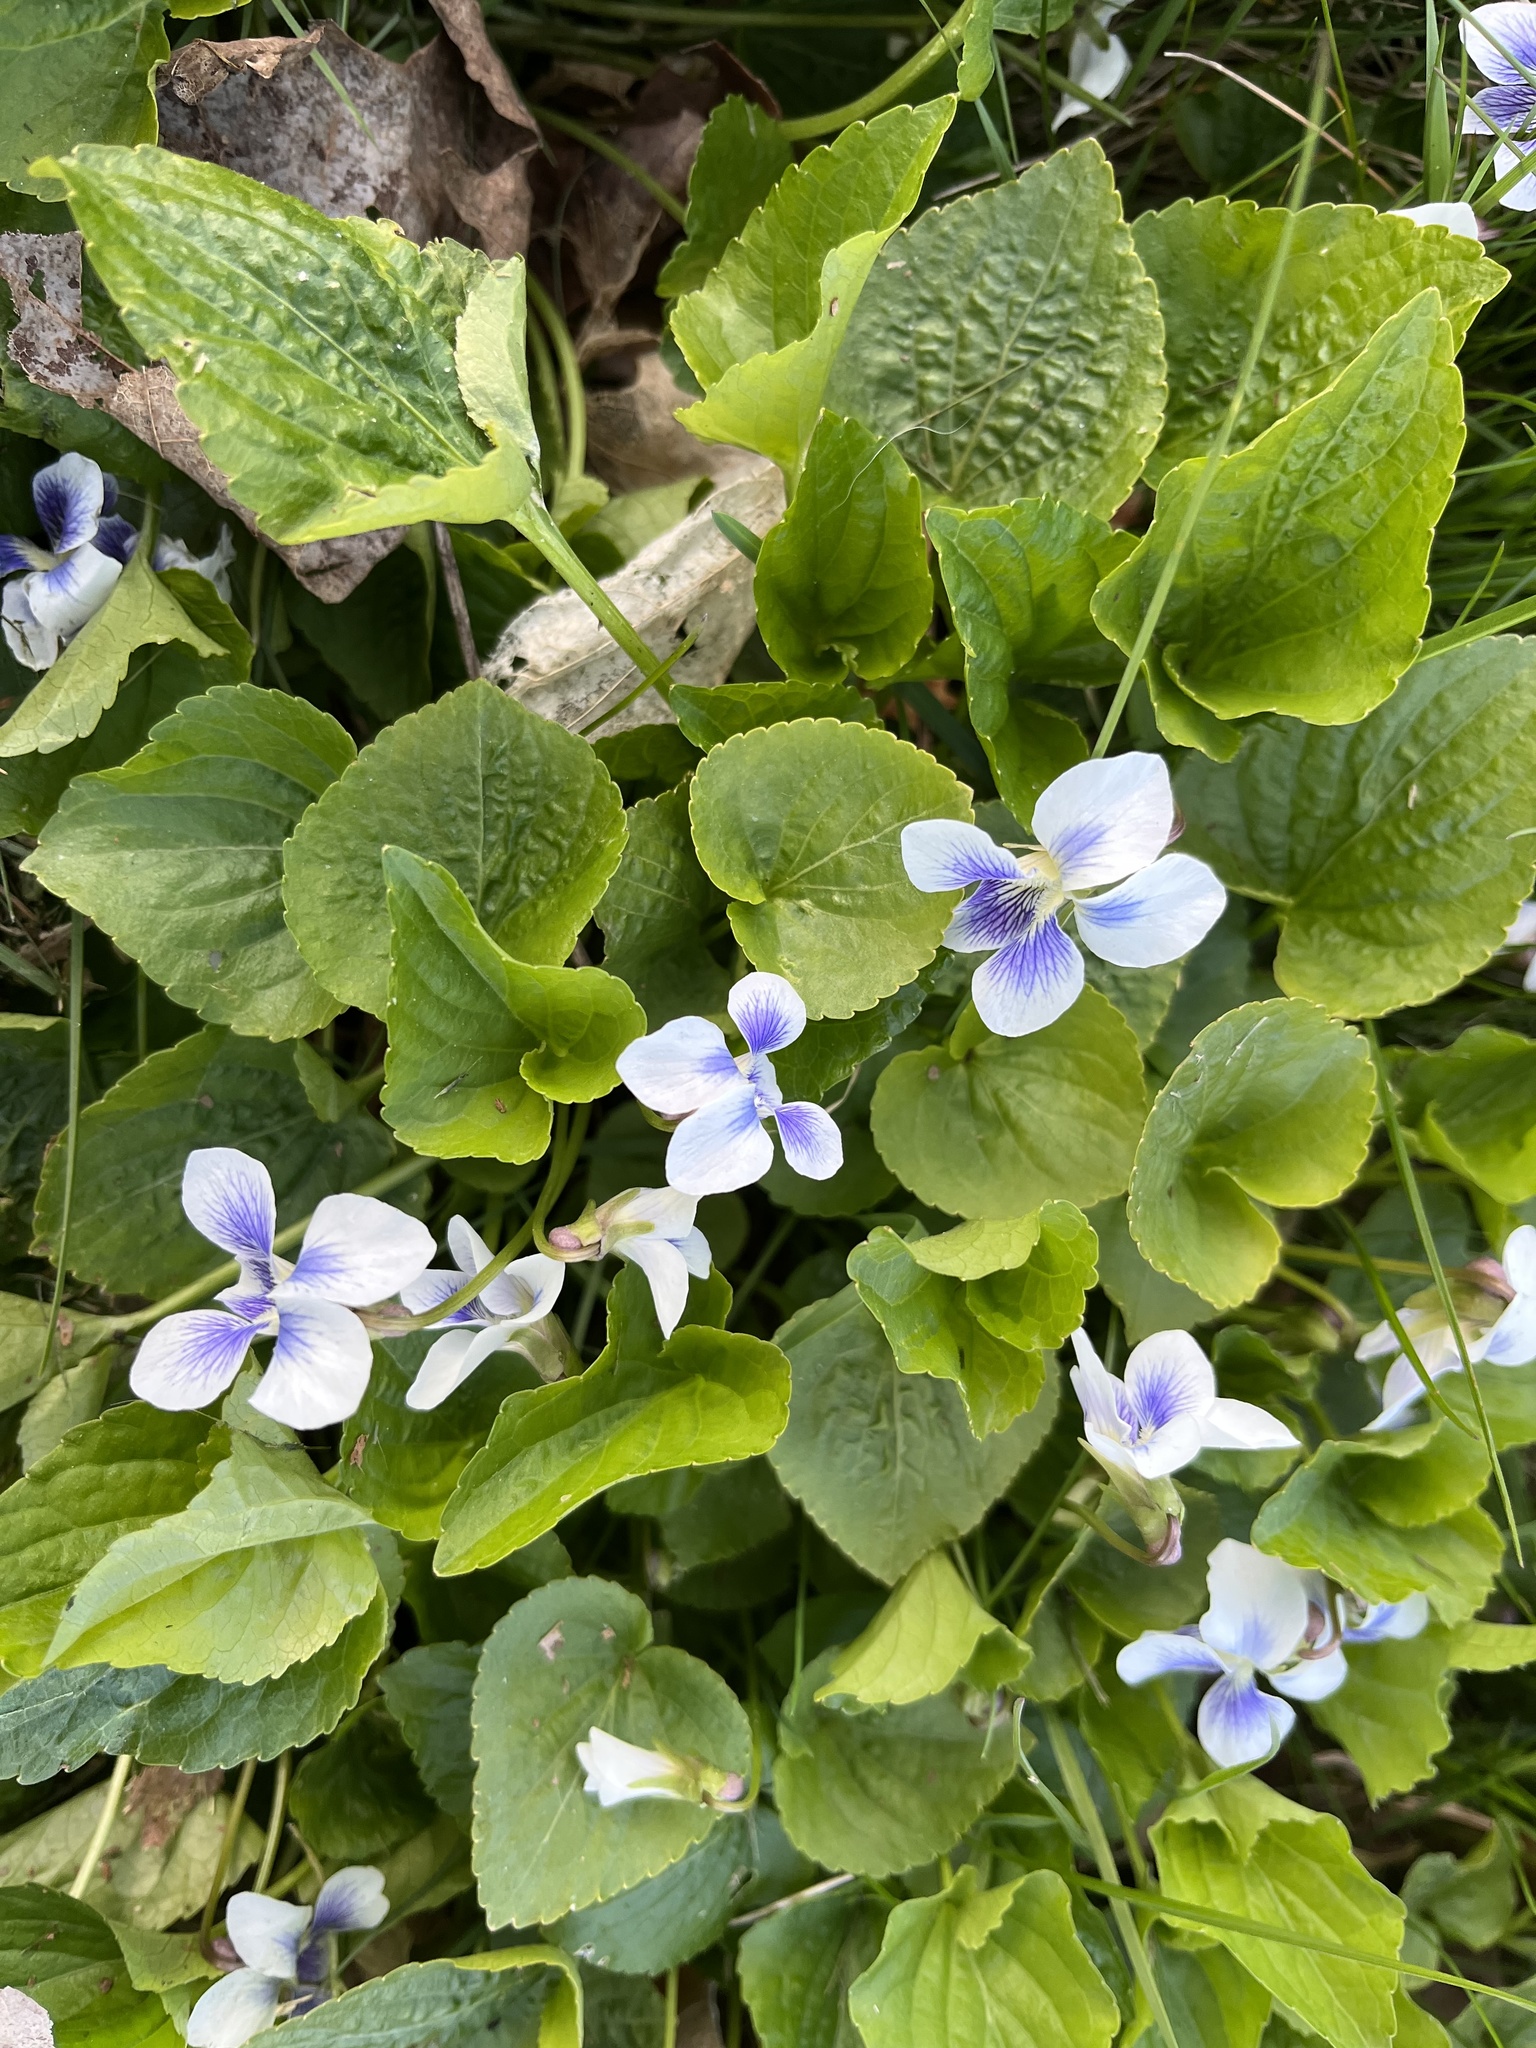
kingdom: Plantae
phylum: Tracheophyta
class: Magnoliopsida
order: Malpighiales
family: Violaceae
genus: Viola
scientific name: Viola sororia
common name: Dooryard violet
